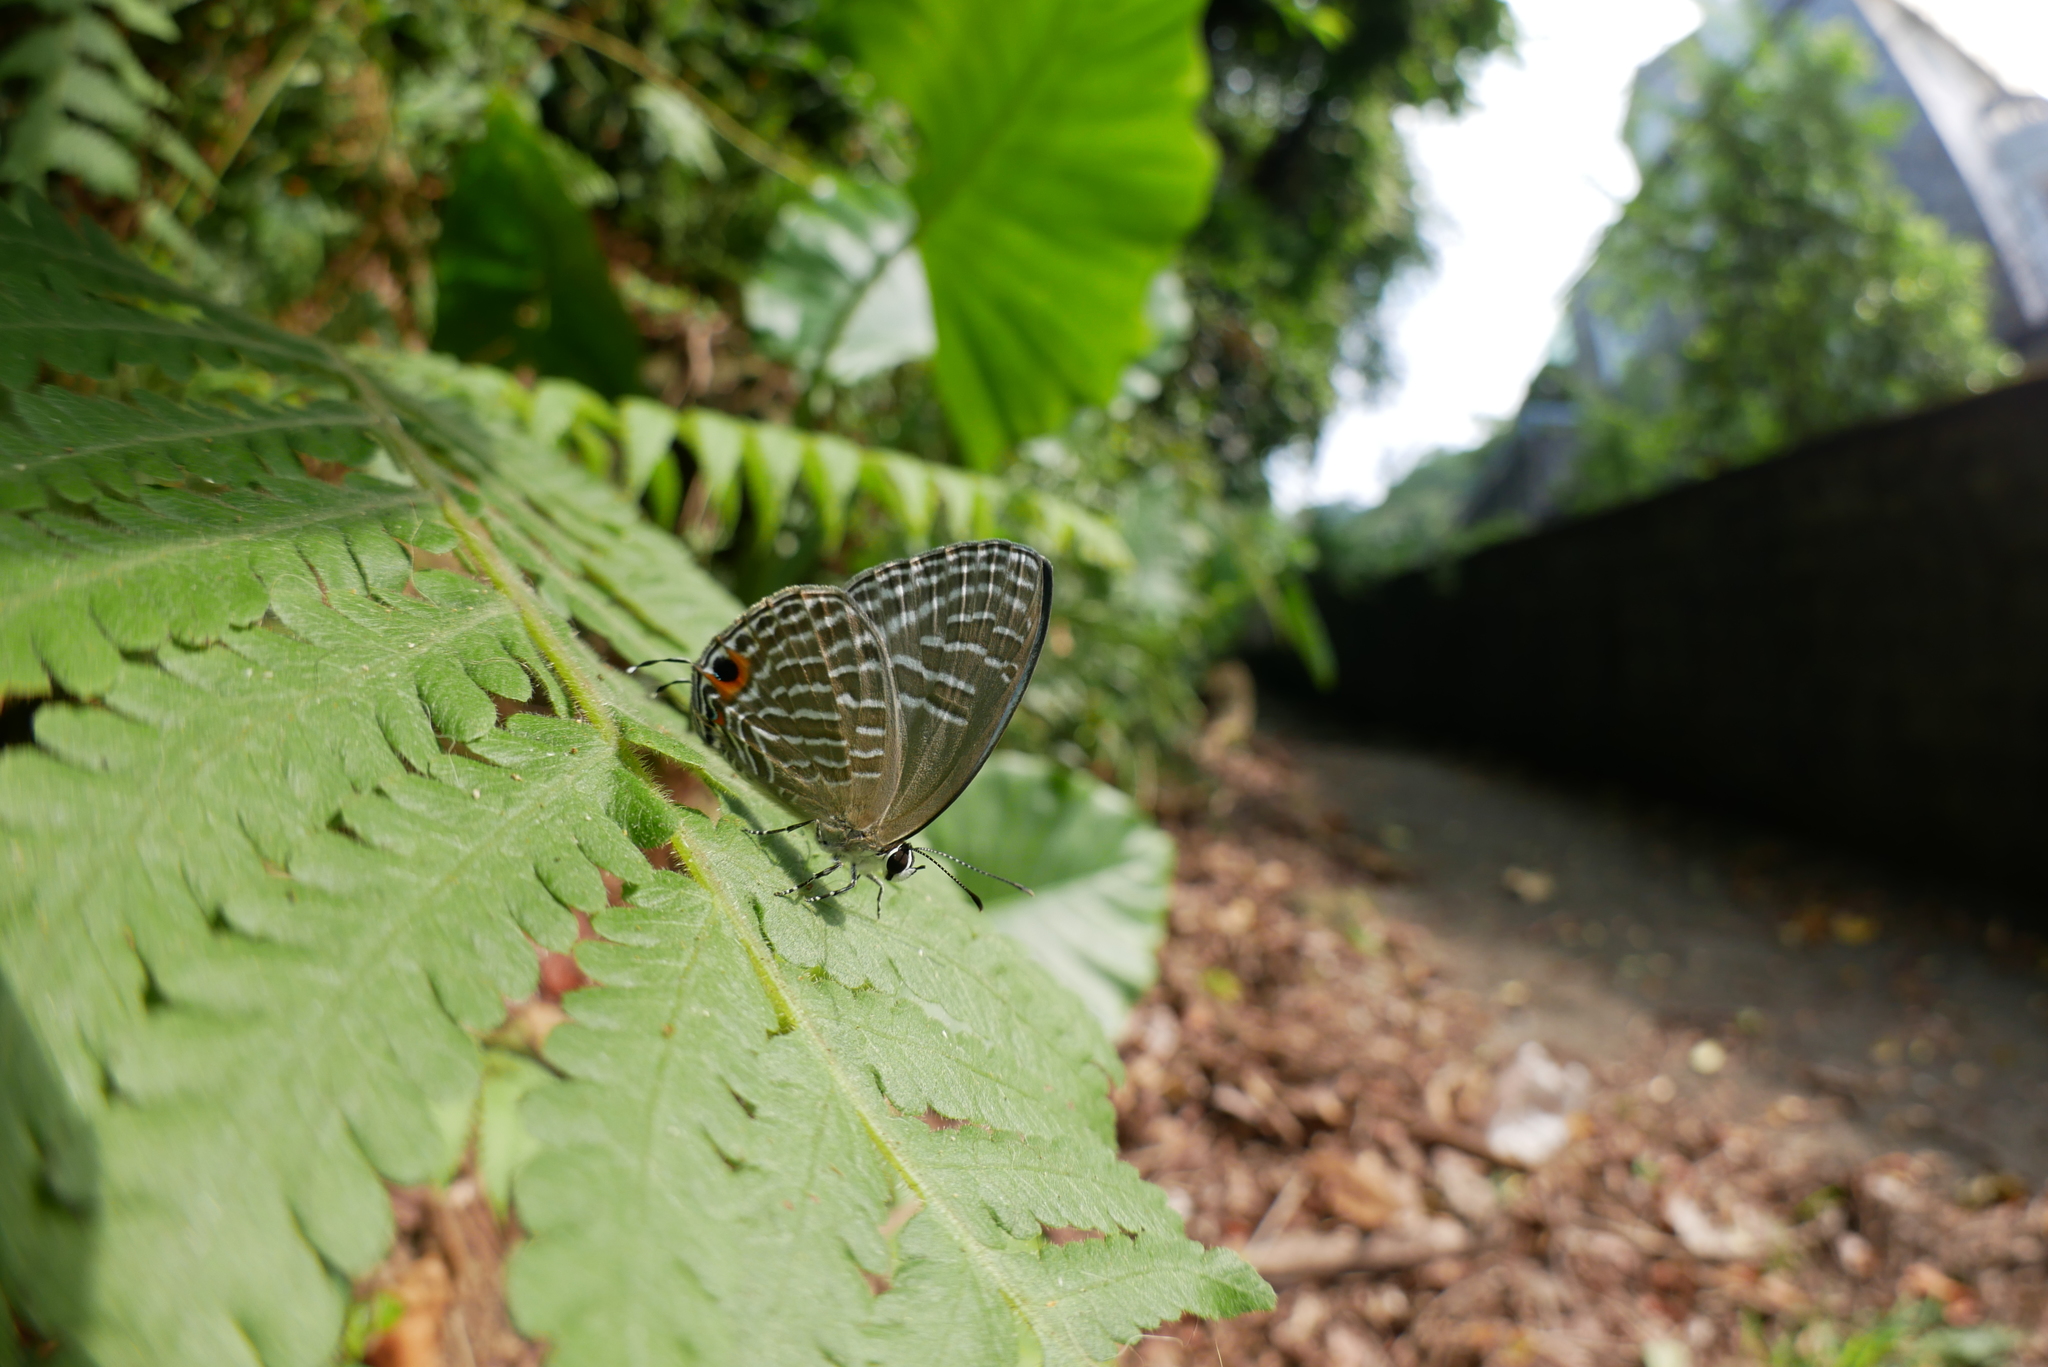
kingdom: Animalia
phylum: Arthropoda
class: Insecta
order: Lepidoptera
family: Lycaenidae
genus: Jamides
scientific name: Jamides alecto
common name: Metallic cerulean
